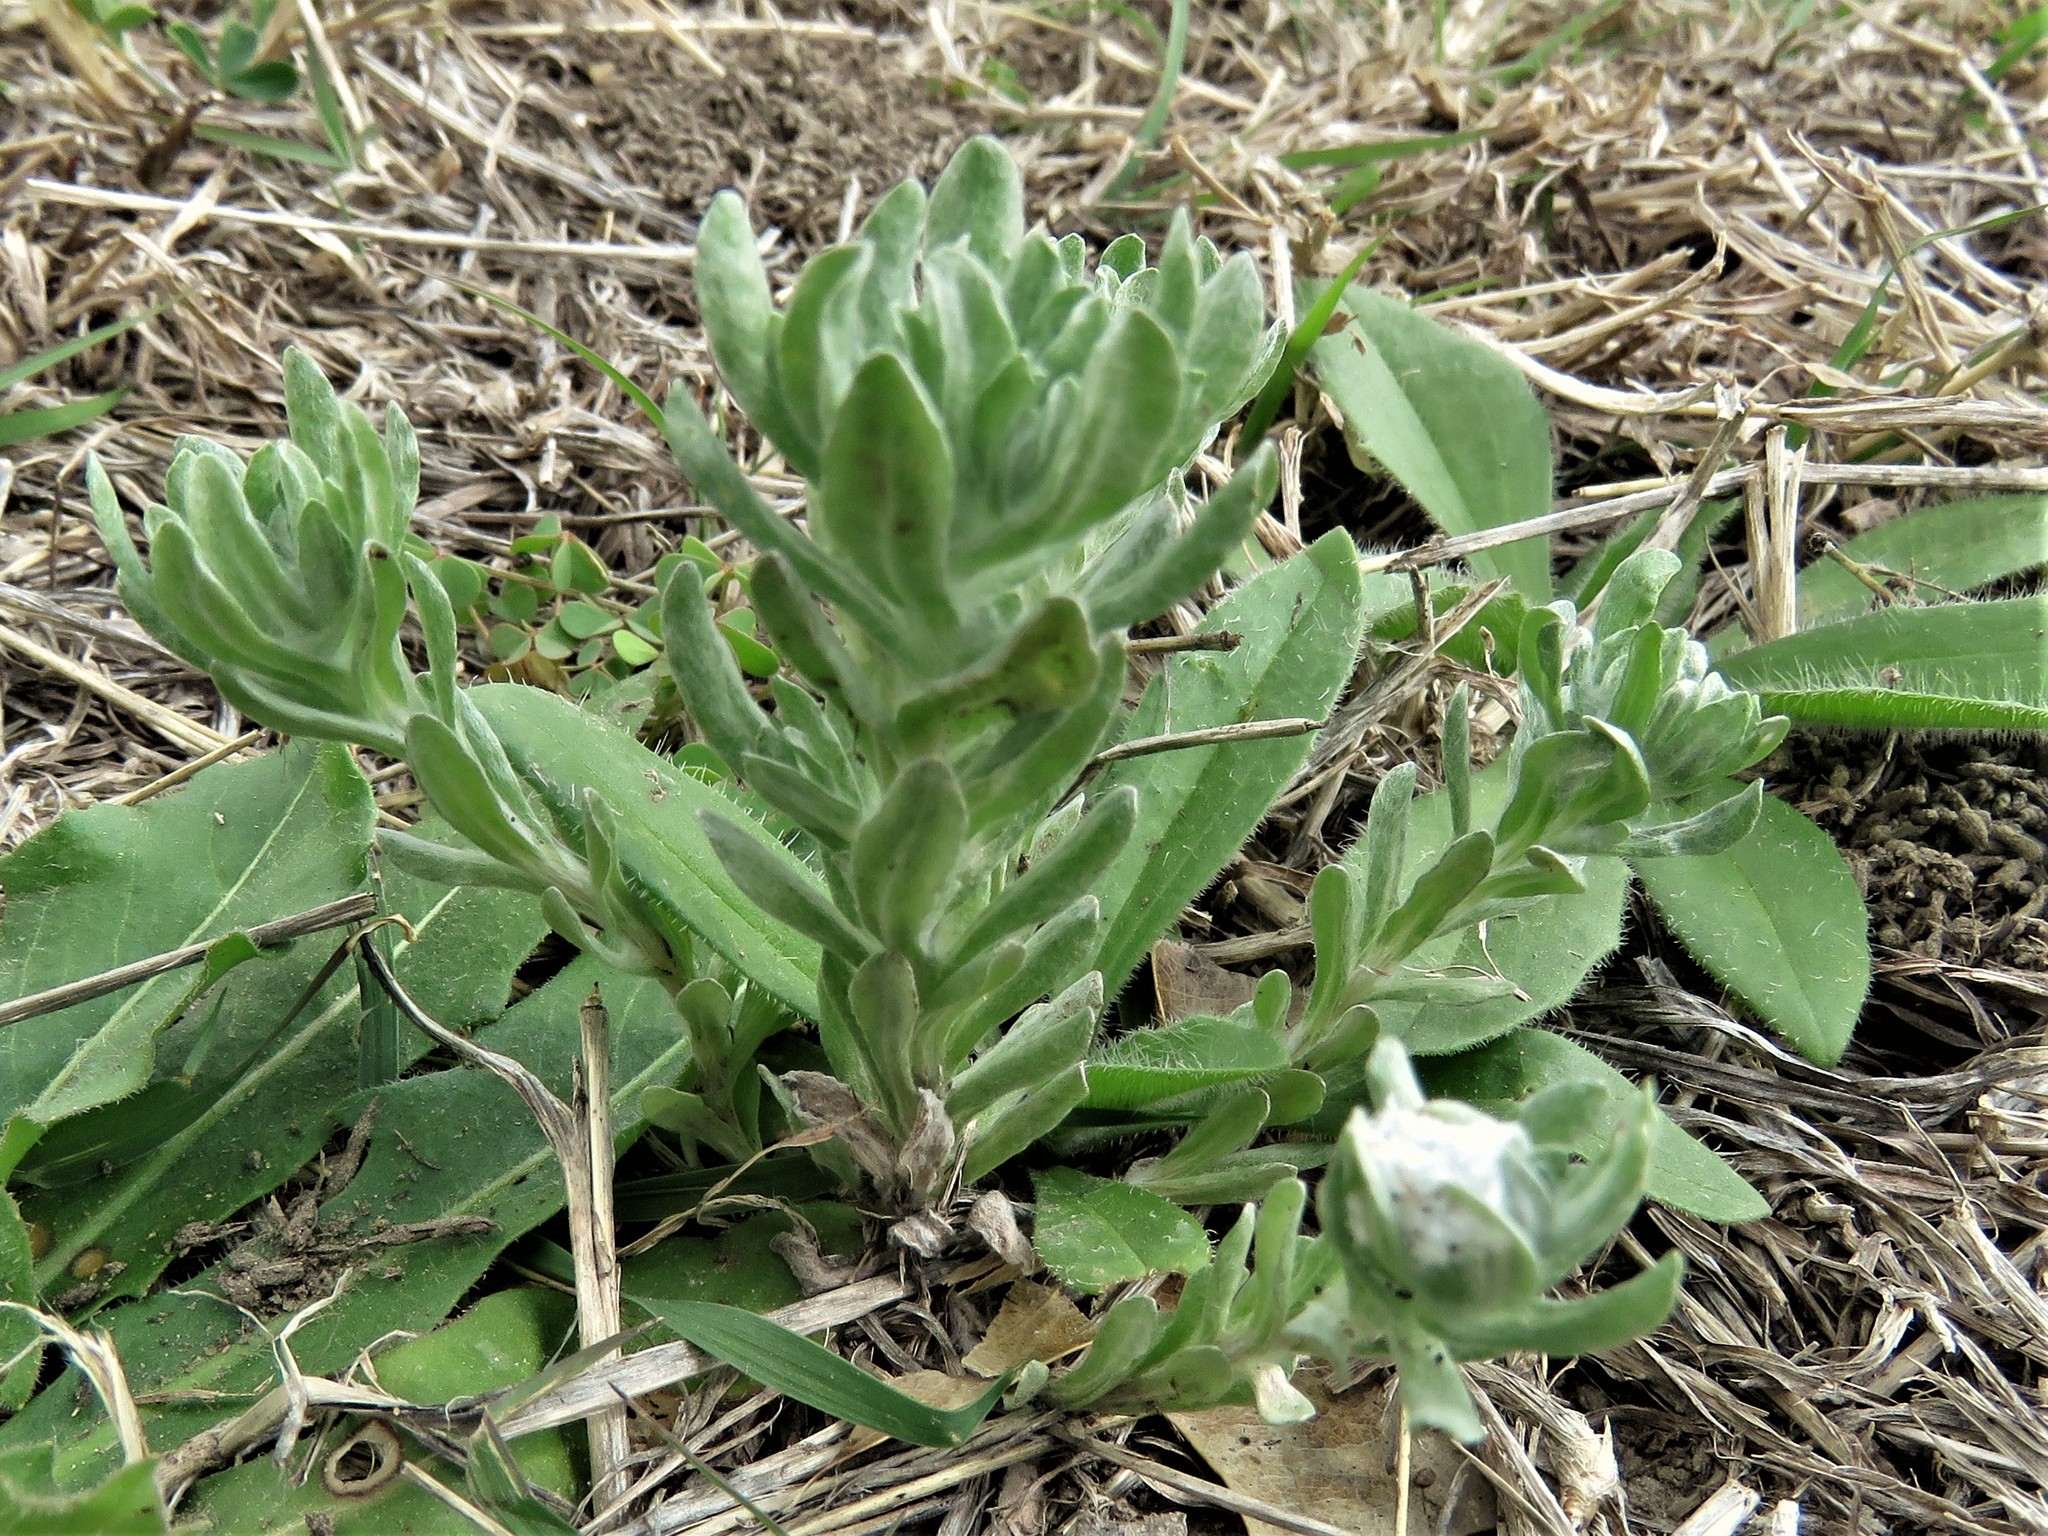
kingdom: Plantae
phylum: Tracheophyta
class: Magnoliopsida
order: Asterales
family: Asteraceae
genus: Diaperia
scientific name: Diaperia prolifera
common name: Big-head rabbit-tobacco
